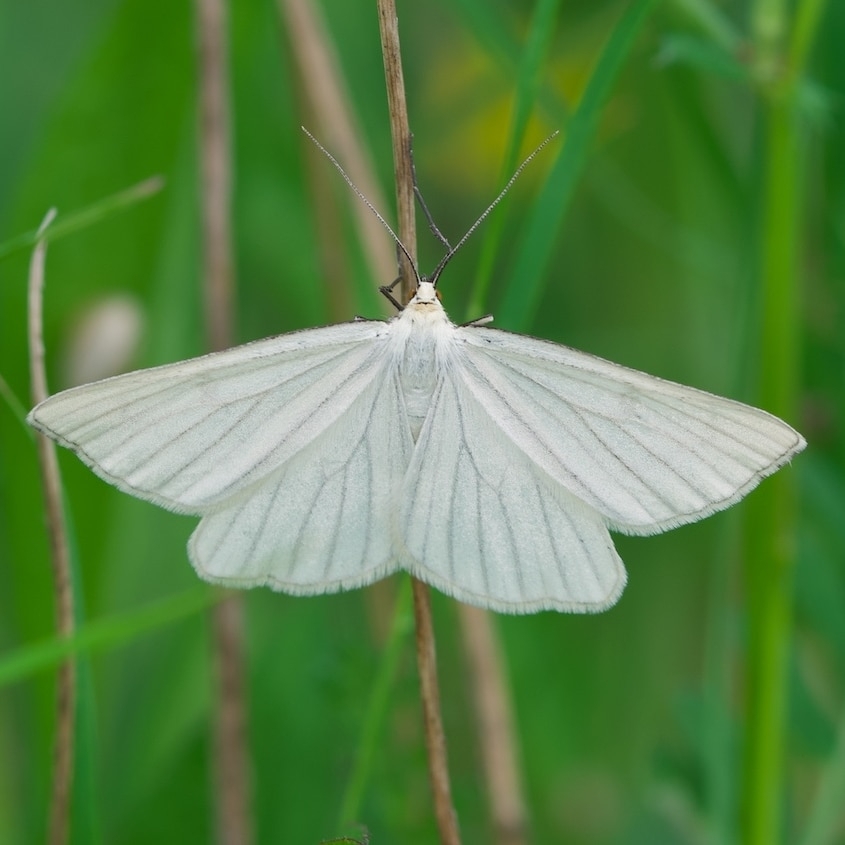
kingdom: Animalia
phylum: Arthropoda
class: Insecta
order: Lepidoptera
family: Geometridae
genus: Siona
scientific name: Siona lineata
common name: Black-veined moth
